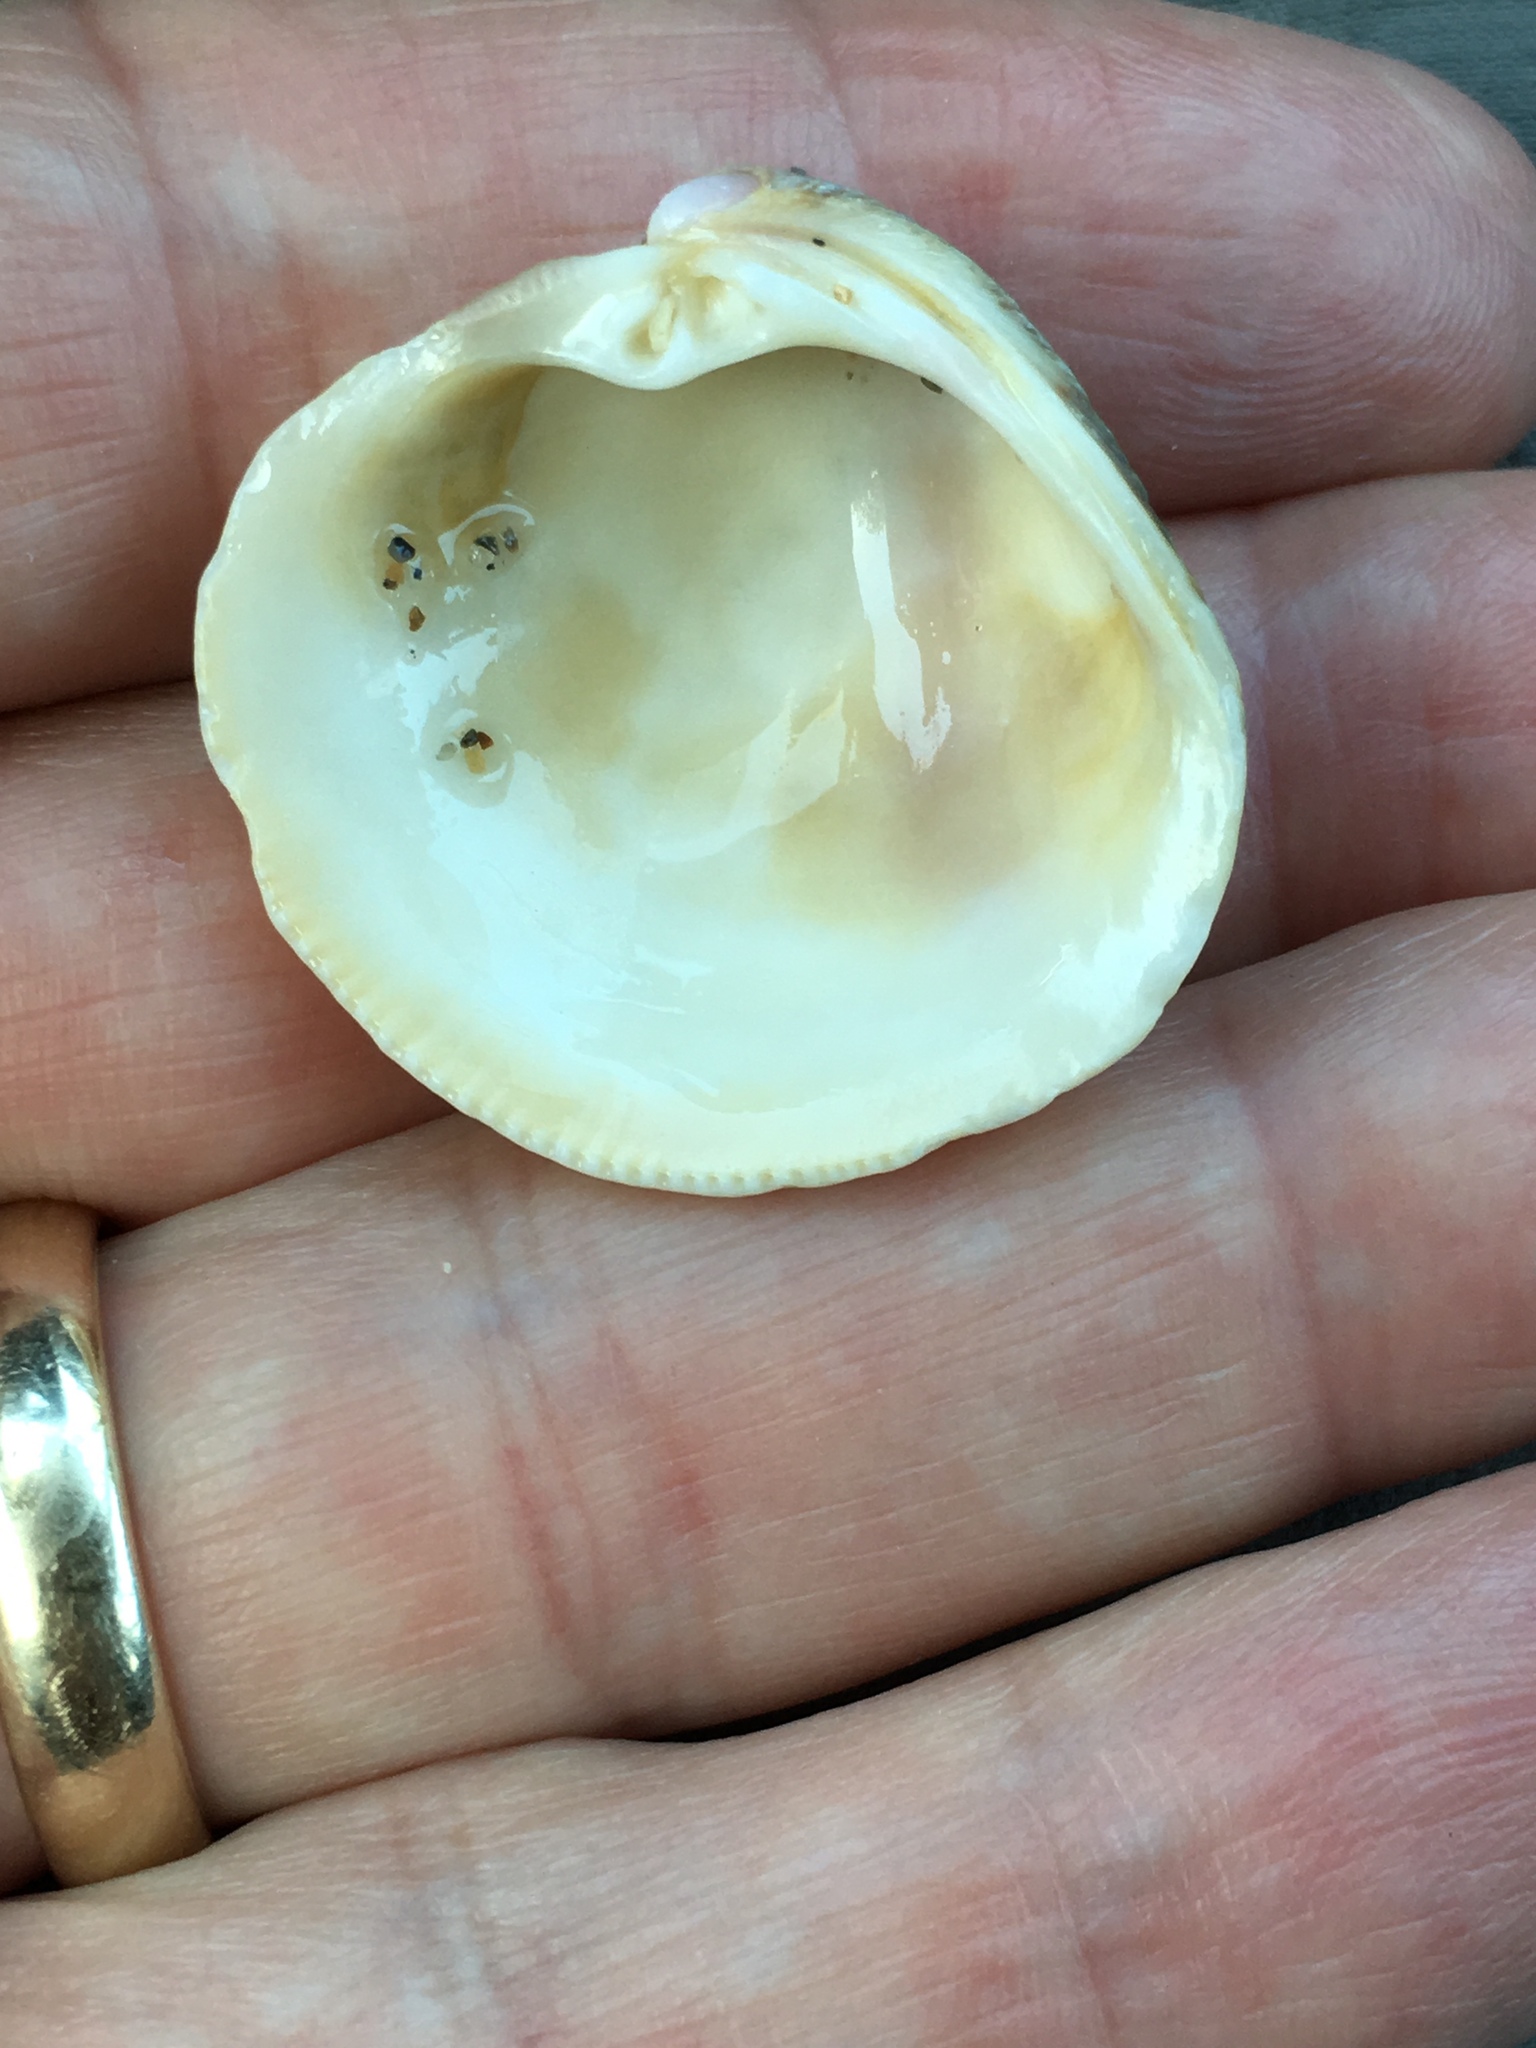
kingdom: Animalia
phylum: Mollusca
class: Bivalvia
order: Venerida
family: Veneridae
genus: Chionopsis
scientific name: Chionopsis intapurpurea
